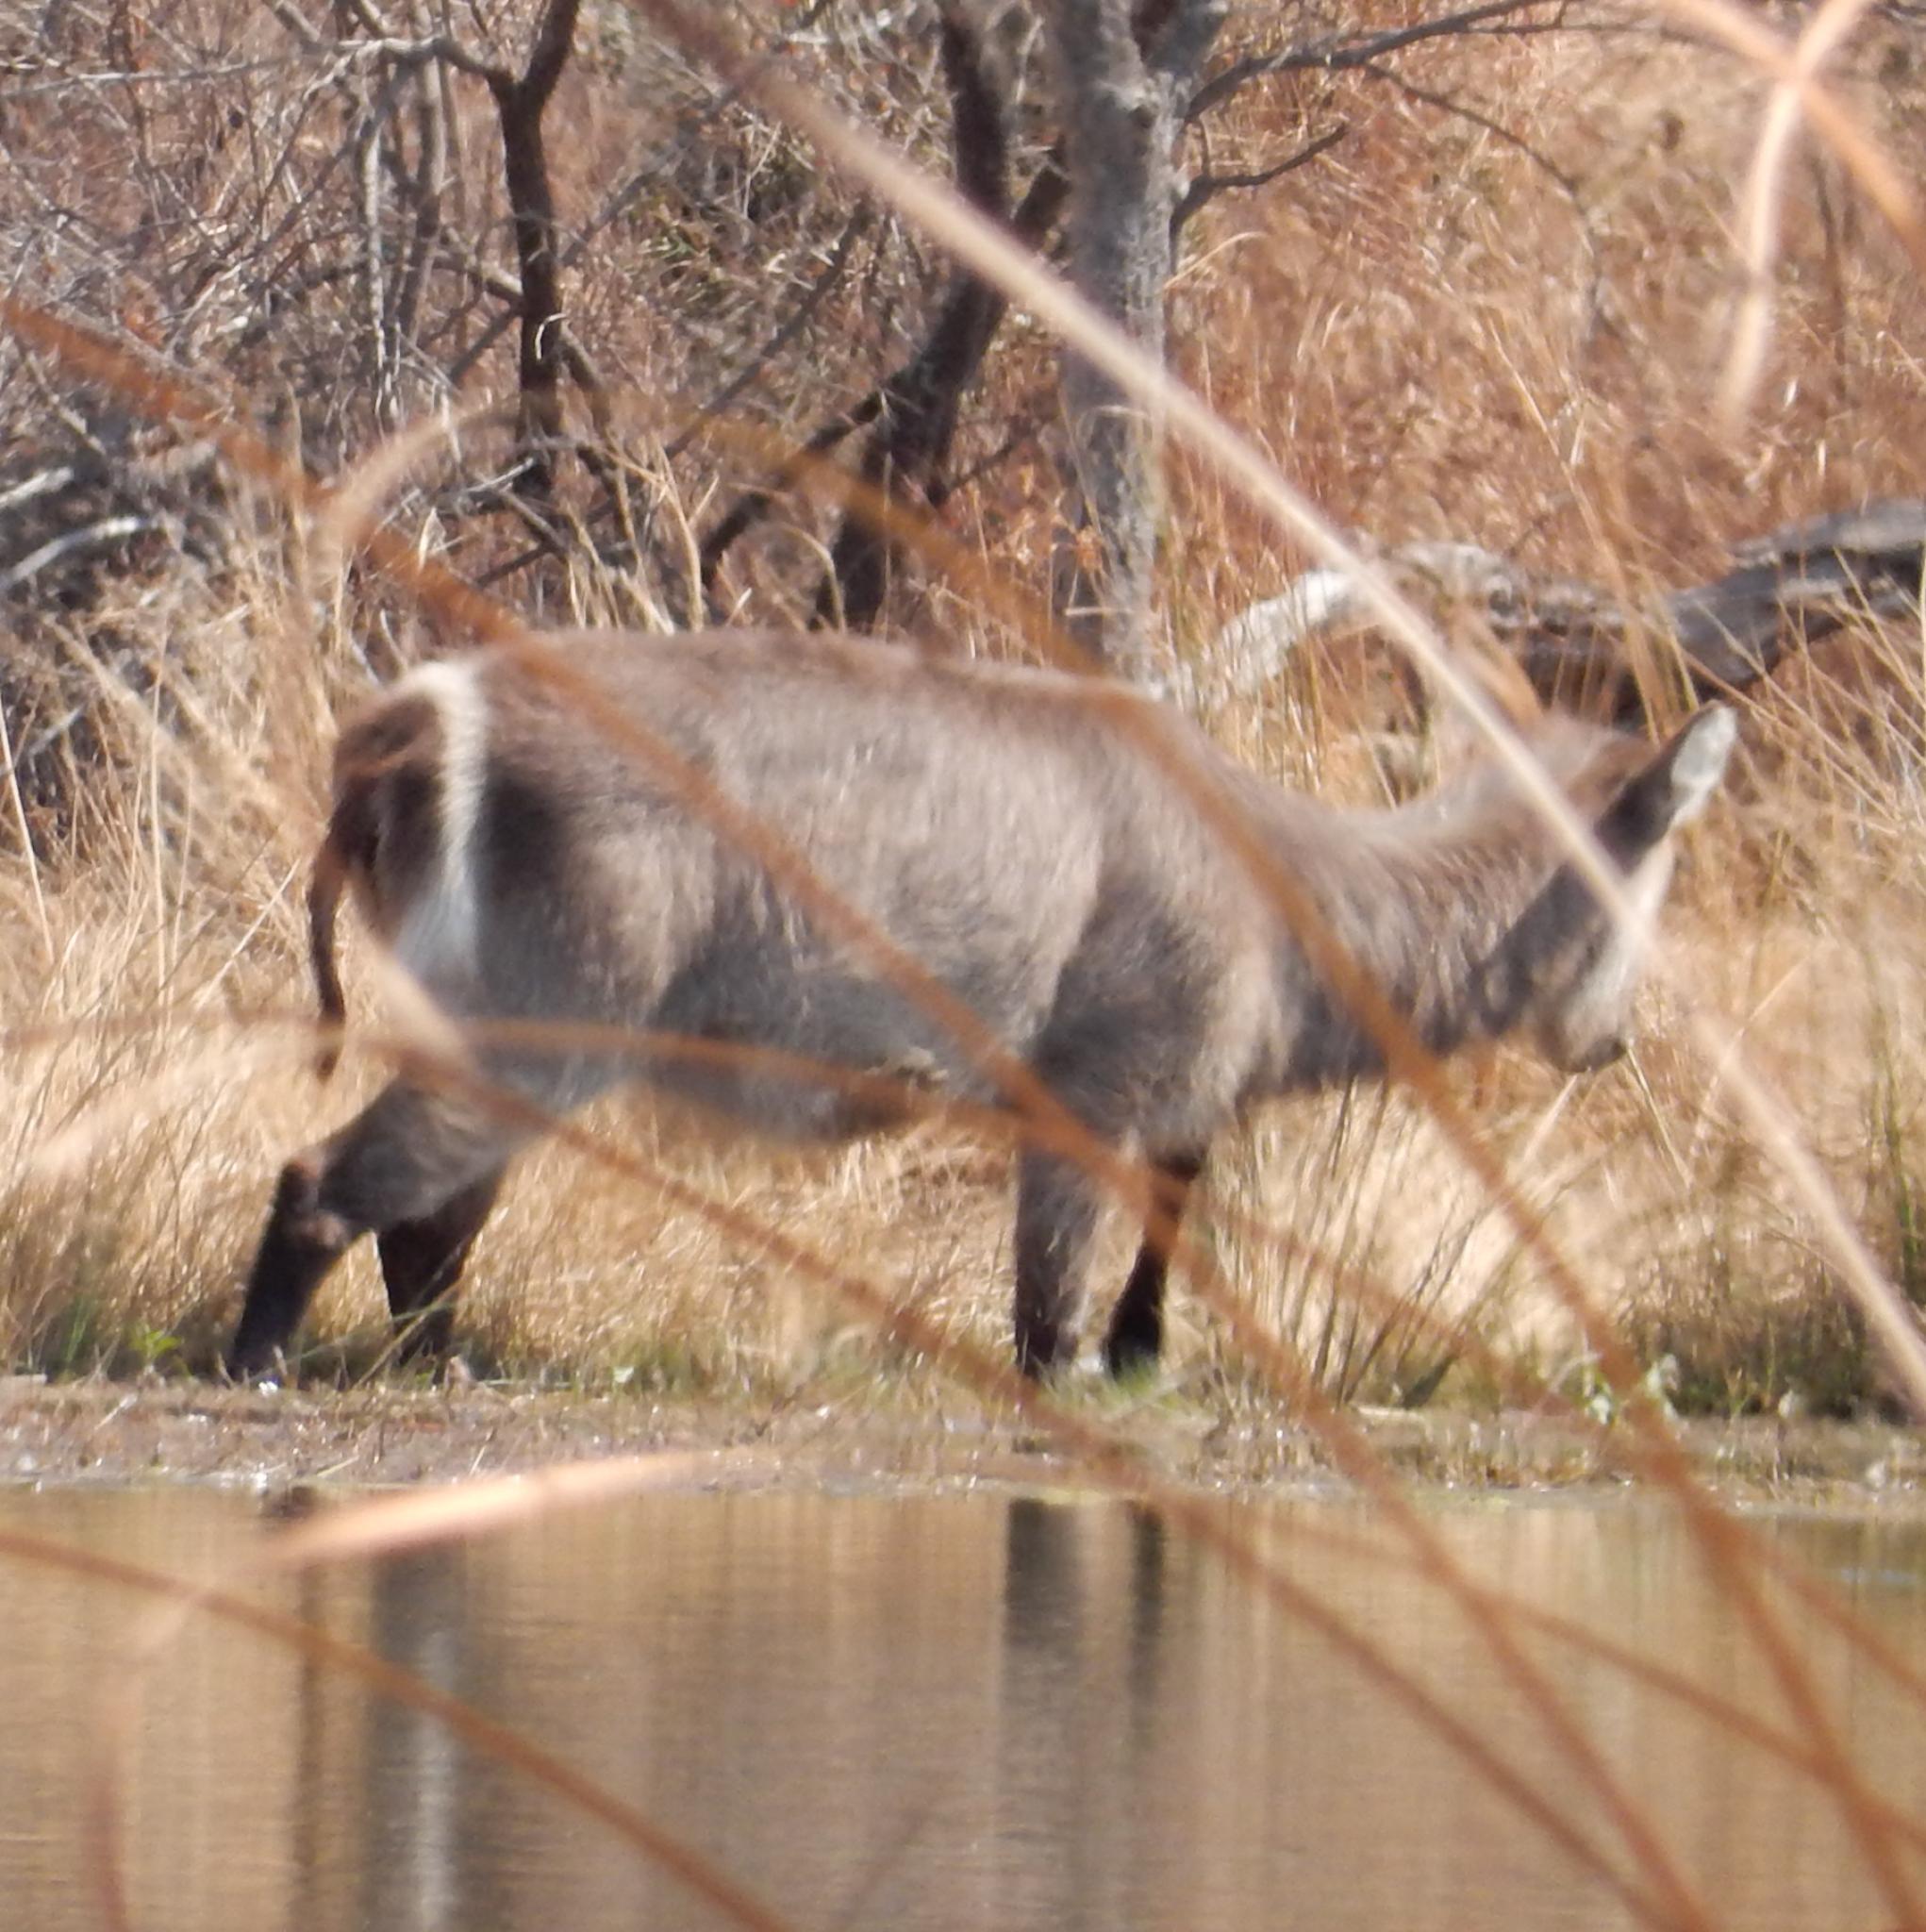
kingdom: Animalia
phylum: Chordata
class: Mammalia
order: Artiodactyla
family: Bovidae
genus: Kobus
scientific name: Kobus ellipsiprymnus
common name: Waterbuck
